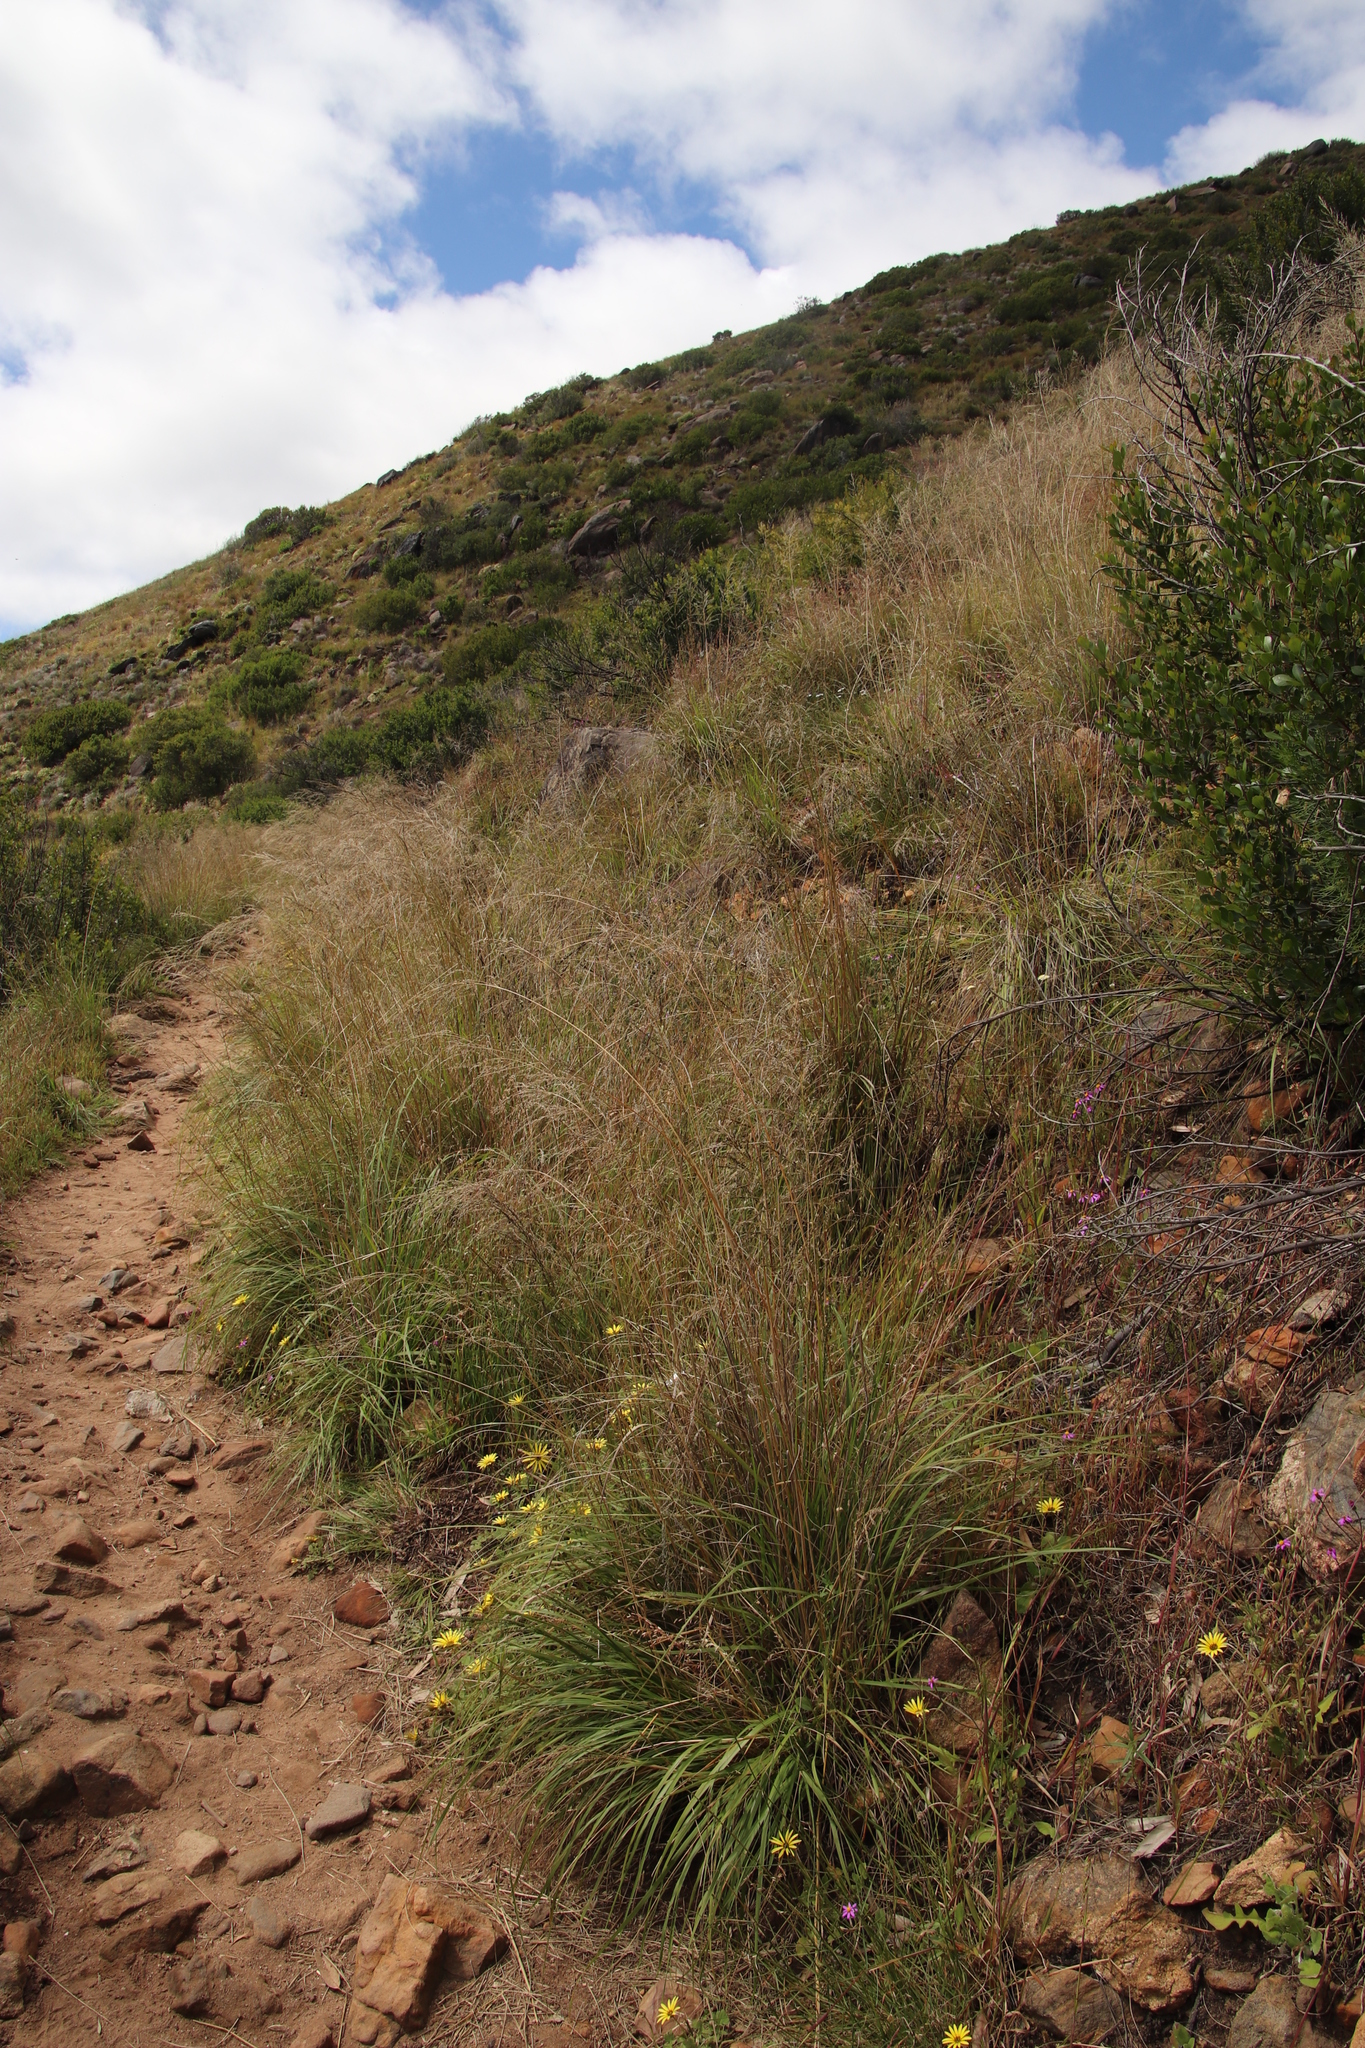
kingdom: Plantae
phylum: Tracheophyta
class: Liliopsida
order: Poales
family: Poaceae
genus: Eragrostis
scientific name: Eragrostis curvula
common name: African love-grass
